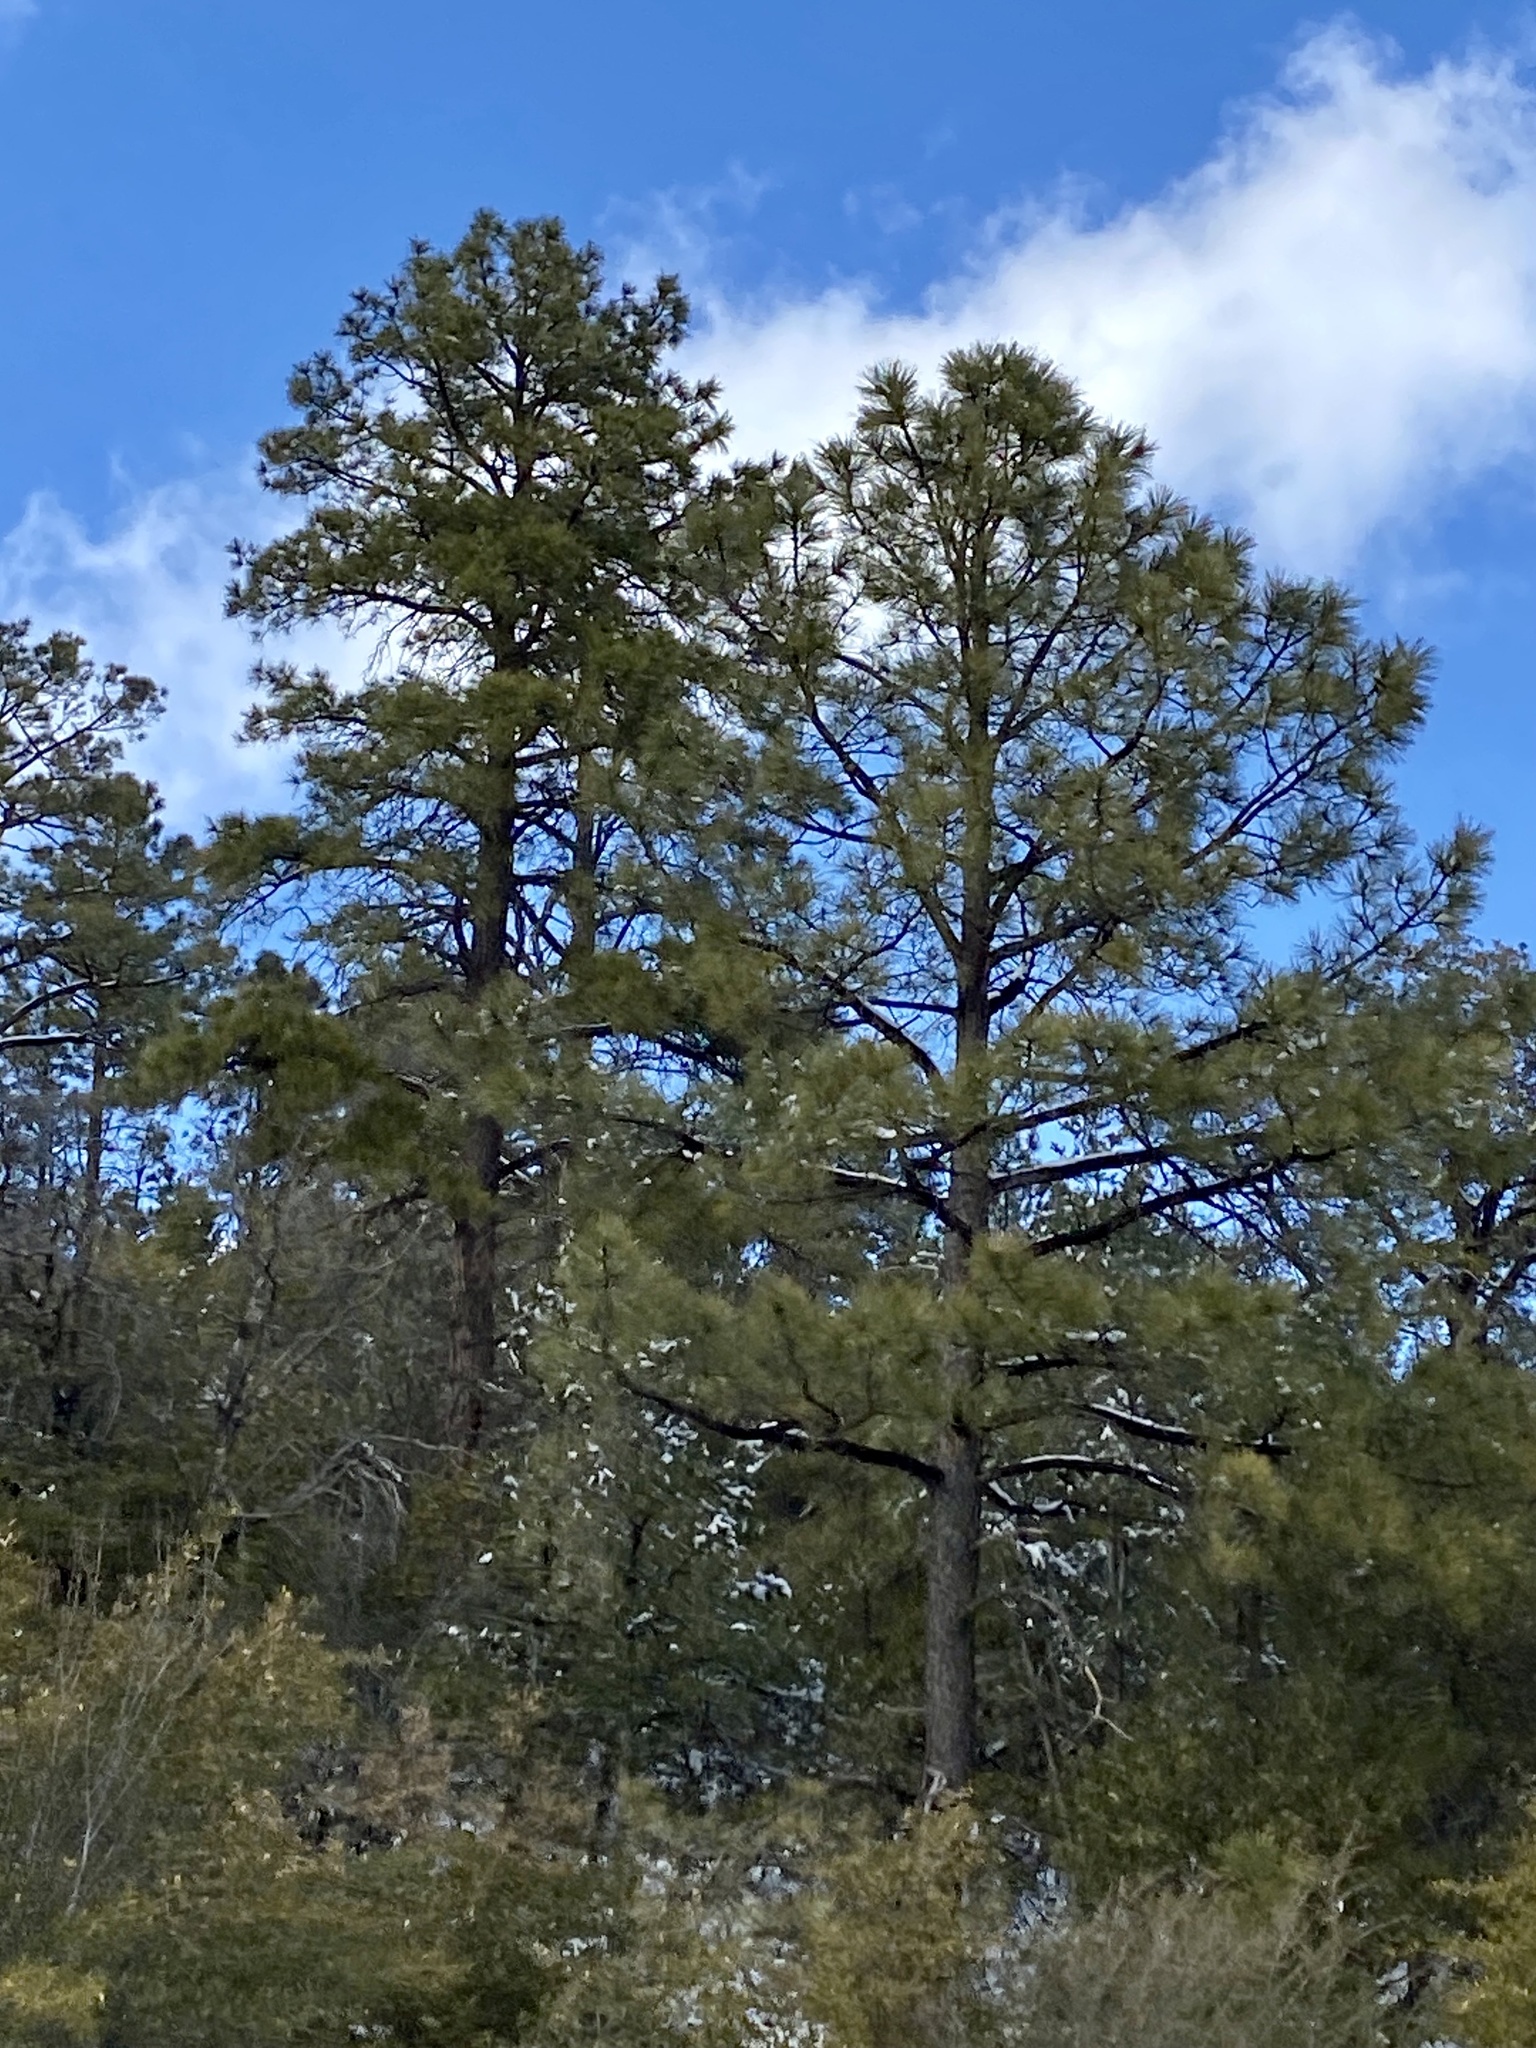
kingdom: Plantae
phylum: Tracheophyta
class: Pinopsida
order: Pinales
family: Pinaceae
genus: Pinus
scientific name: Pinus ponderosa
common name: Western yellow-pine
